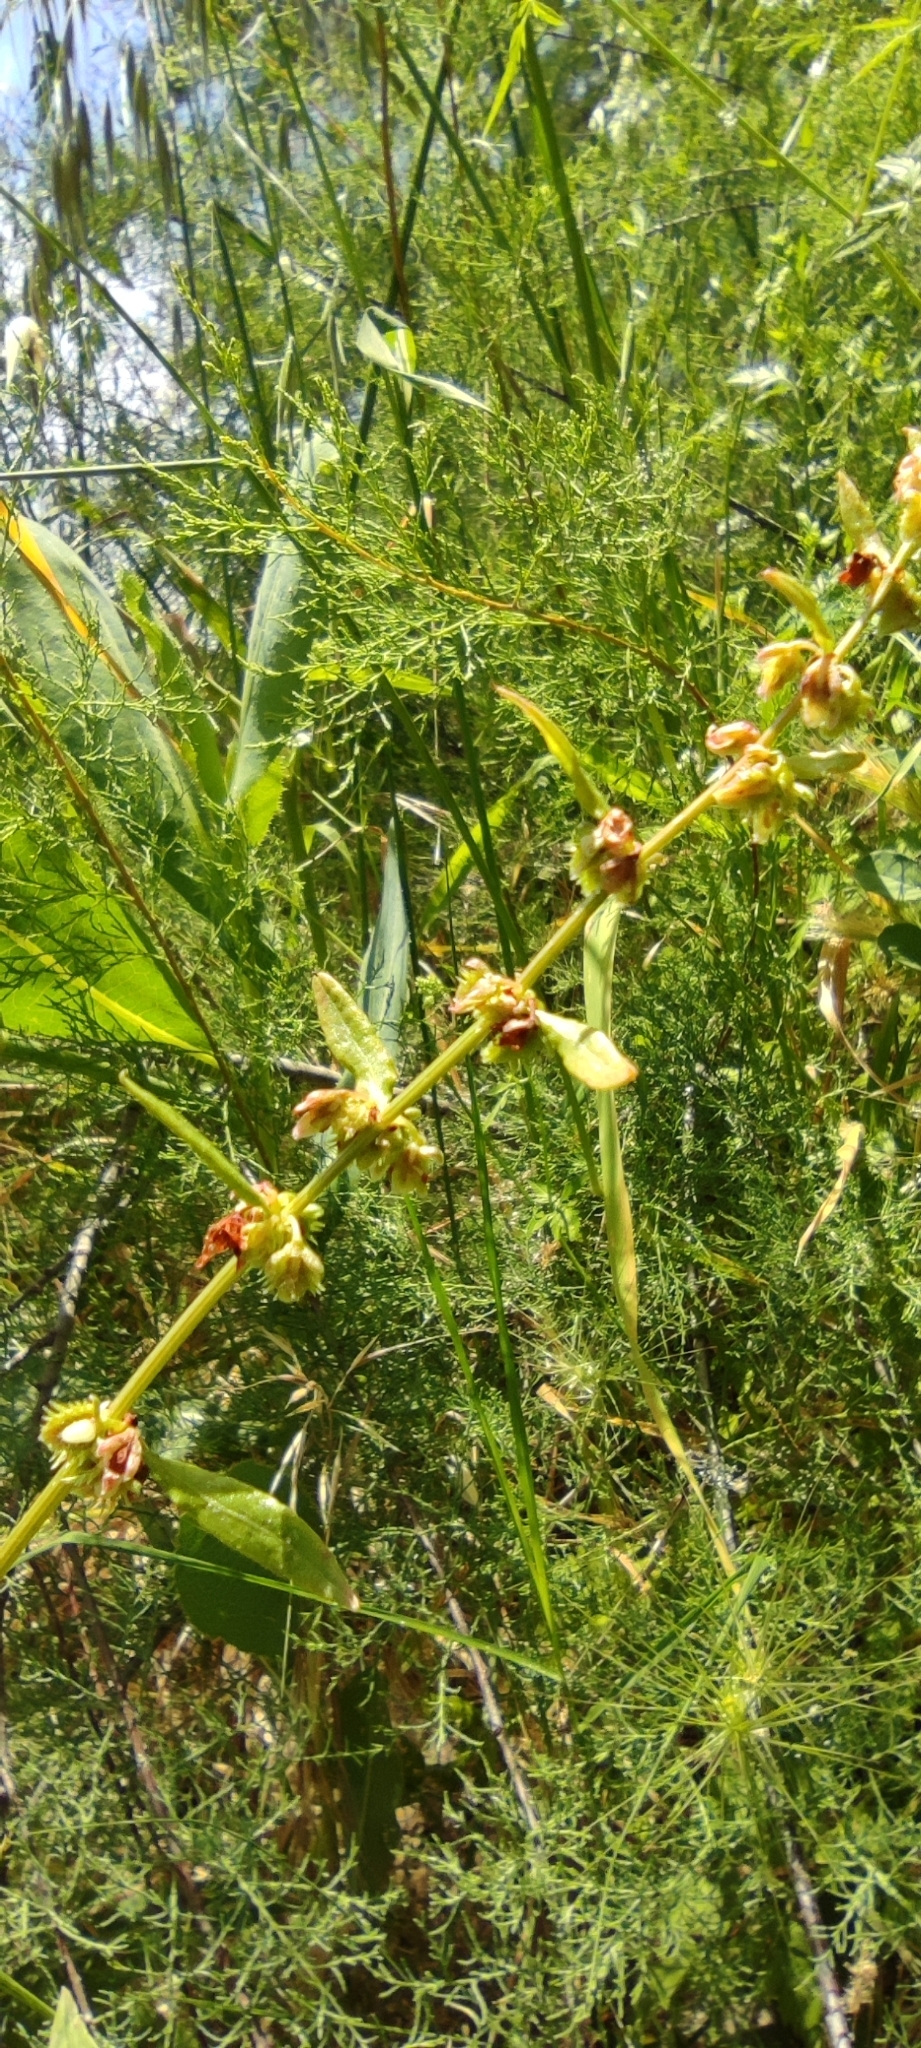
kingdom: Plantae
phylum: Tracheophyta
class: Magnoliopsida
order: Caryophyllales
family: Polygonaceae
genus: Rumex
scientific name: Rumex pulcher
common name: Fiddle dock
